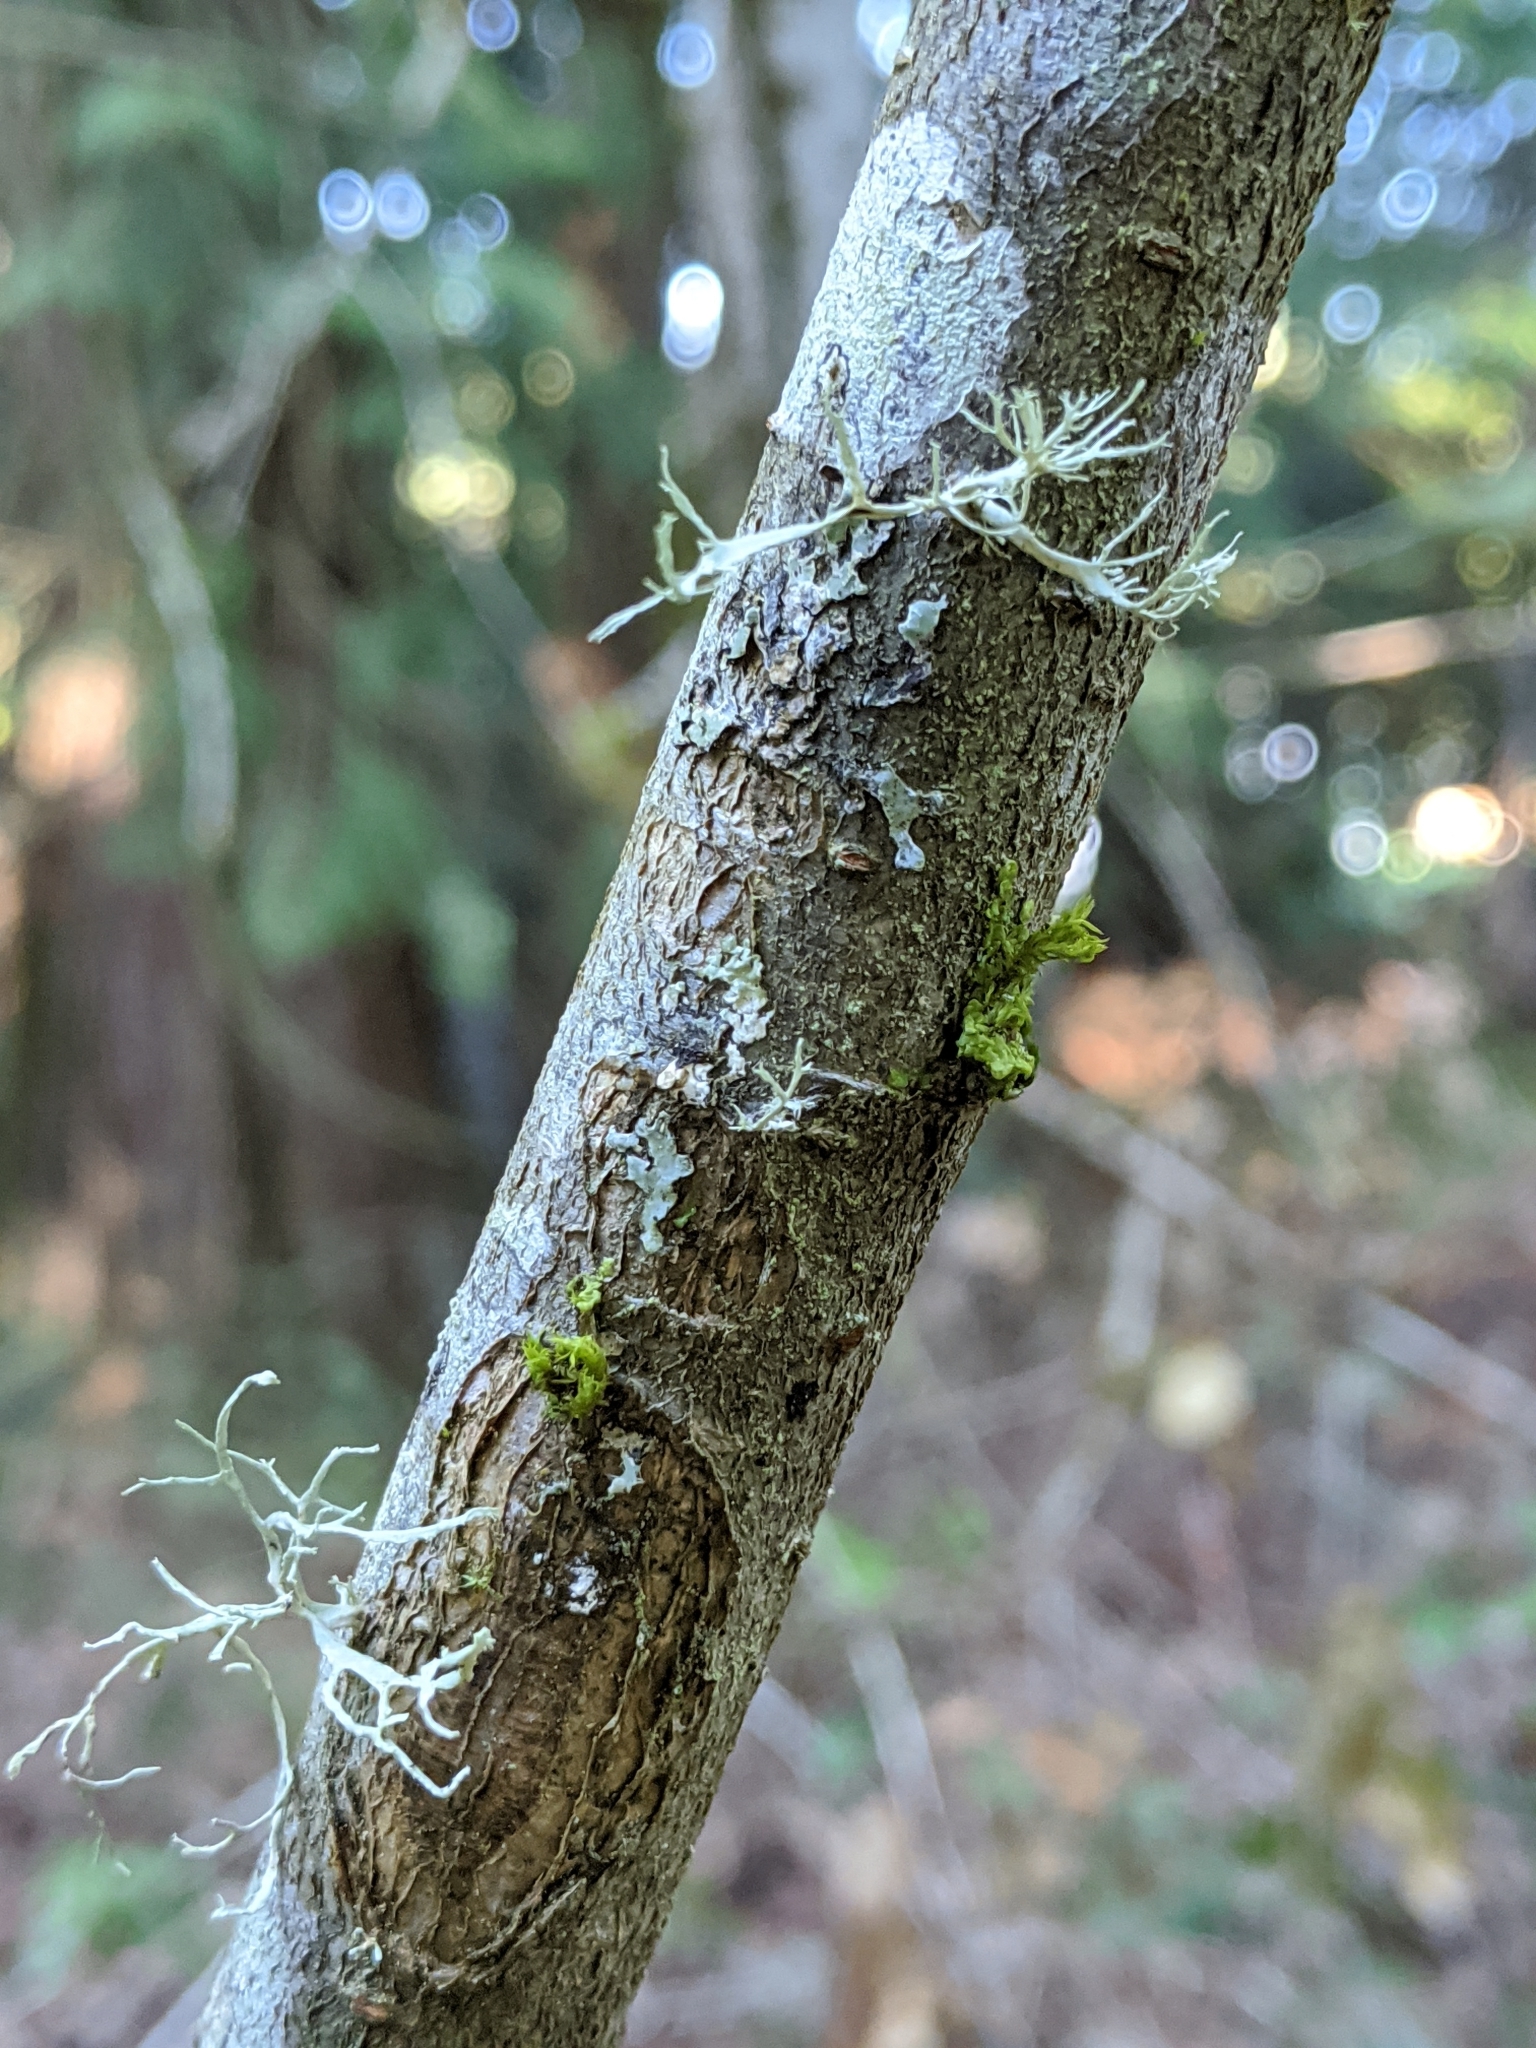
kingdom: Plantae
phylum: Tracheophyta
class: Magnoliopsida
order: Rosales
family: Rosaceae
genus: Cotoneaster
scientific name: Cotoneaster bullatus
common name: Hollyberry cotoneaster
